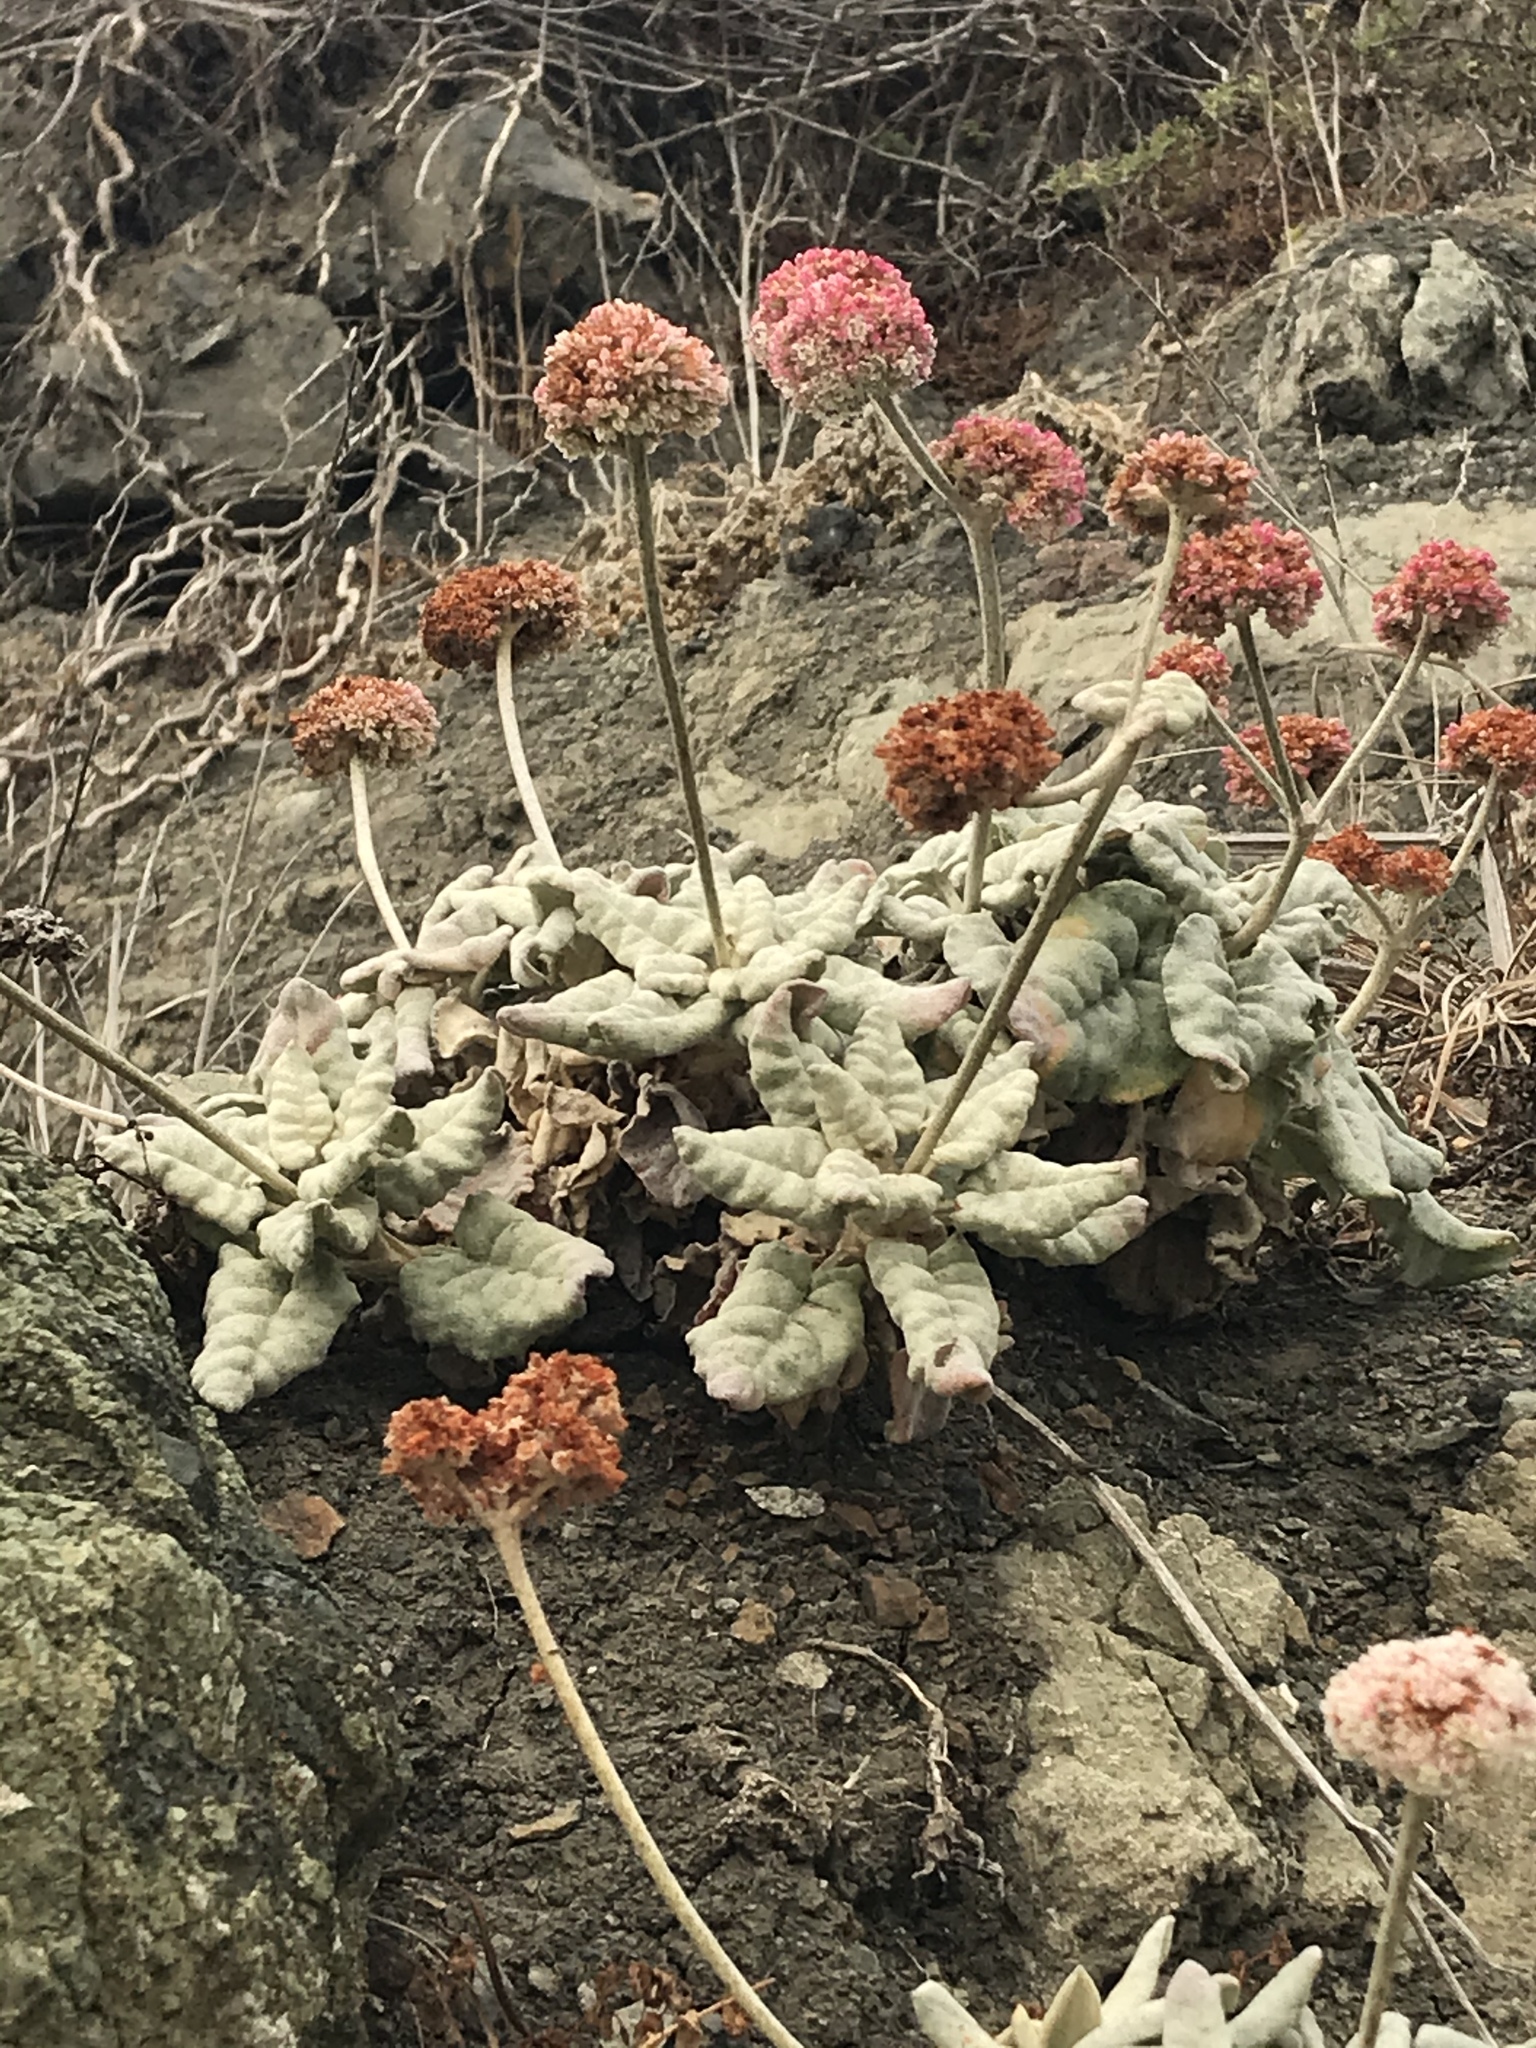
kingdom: Plantae
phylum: Tracheophyta
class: Magnoliopsida
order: Caryophyllales
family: Polygonaceae
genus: Eriogonum
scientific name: Eriogonum latifolium
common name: Seaside wild buckwheat
